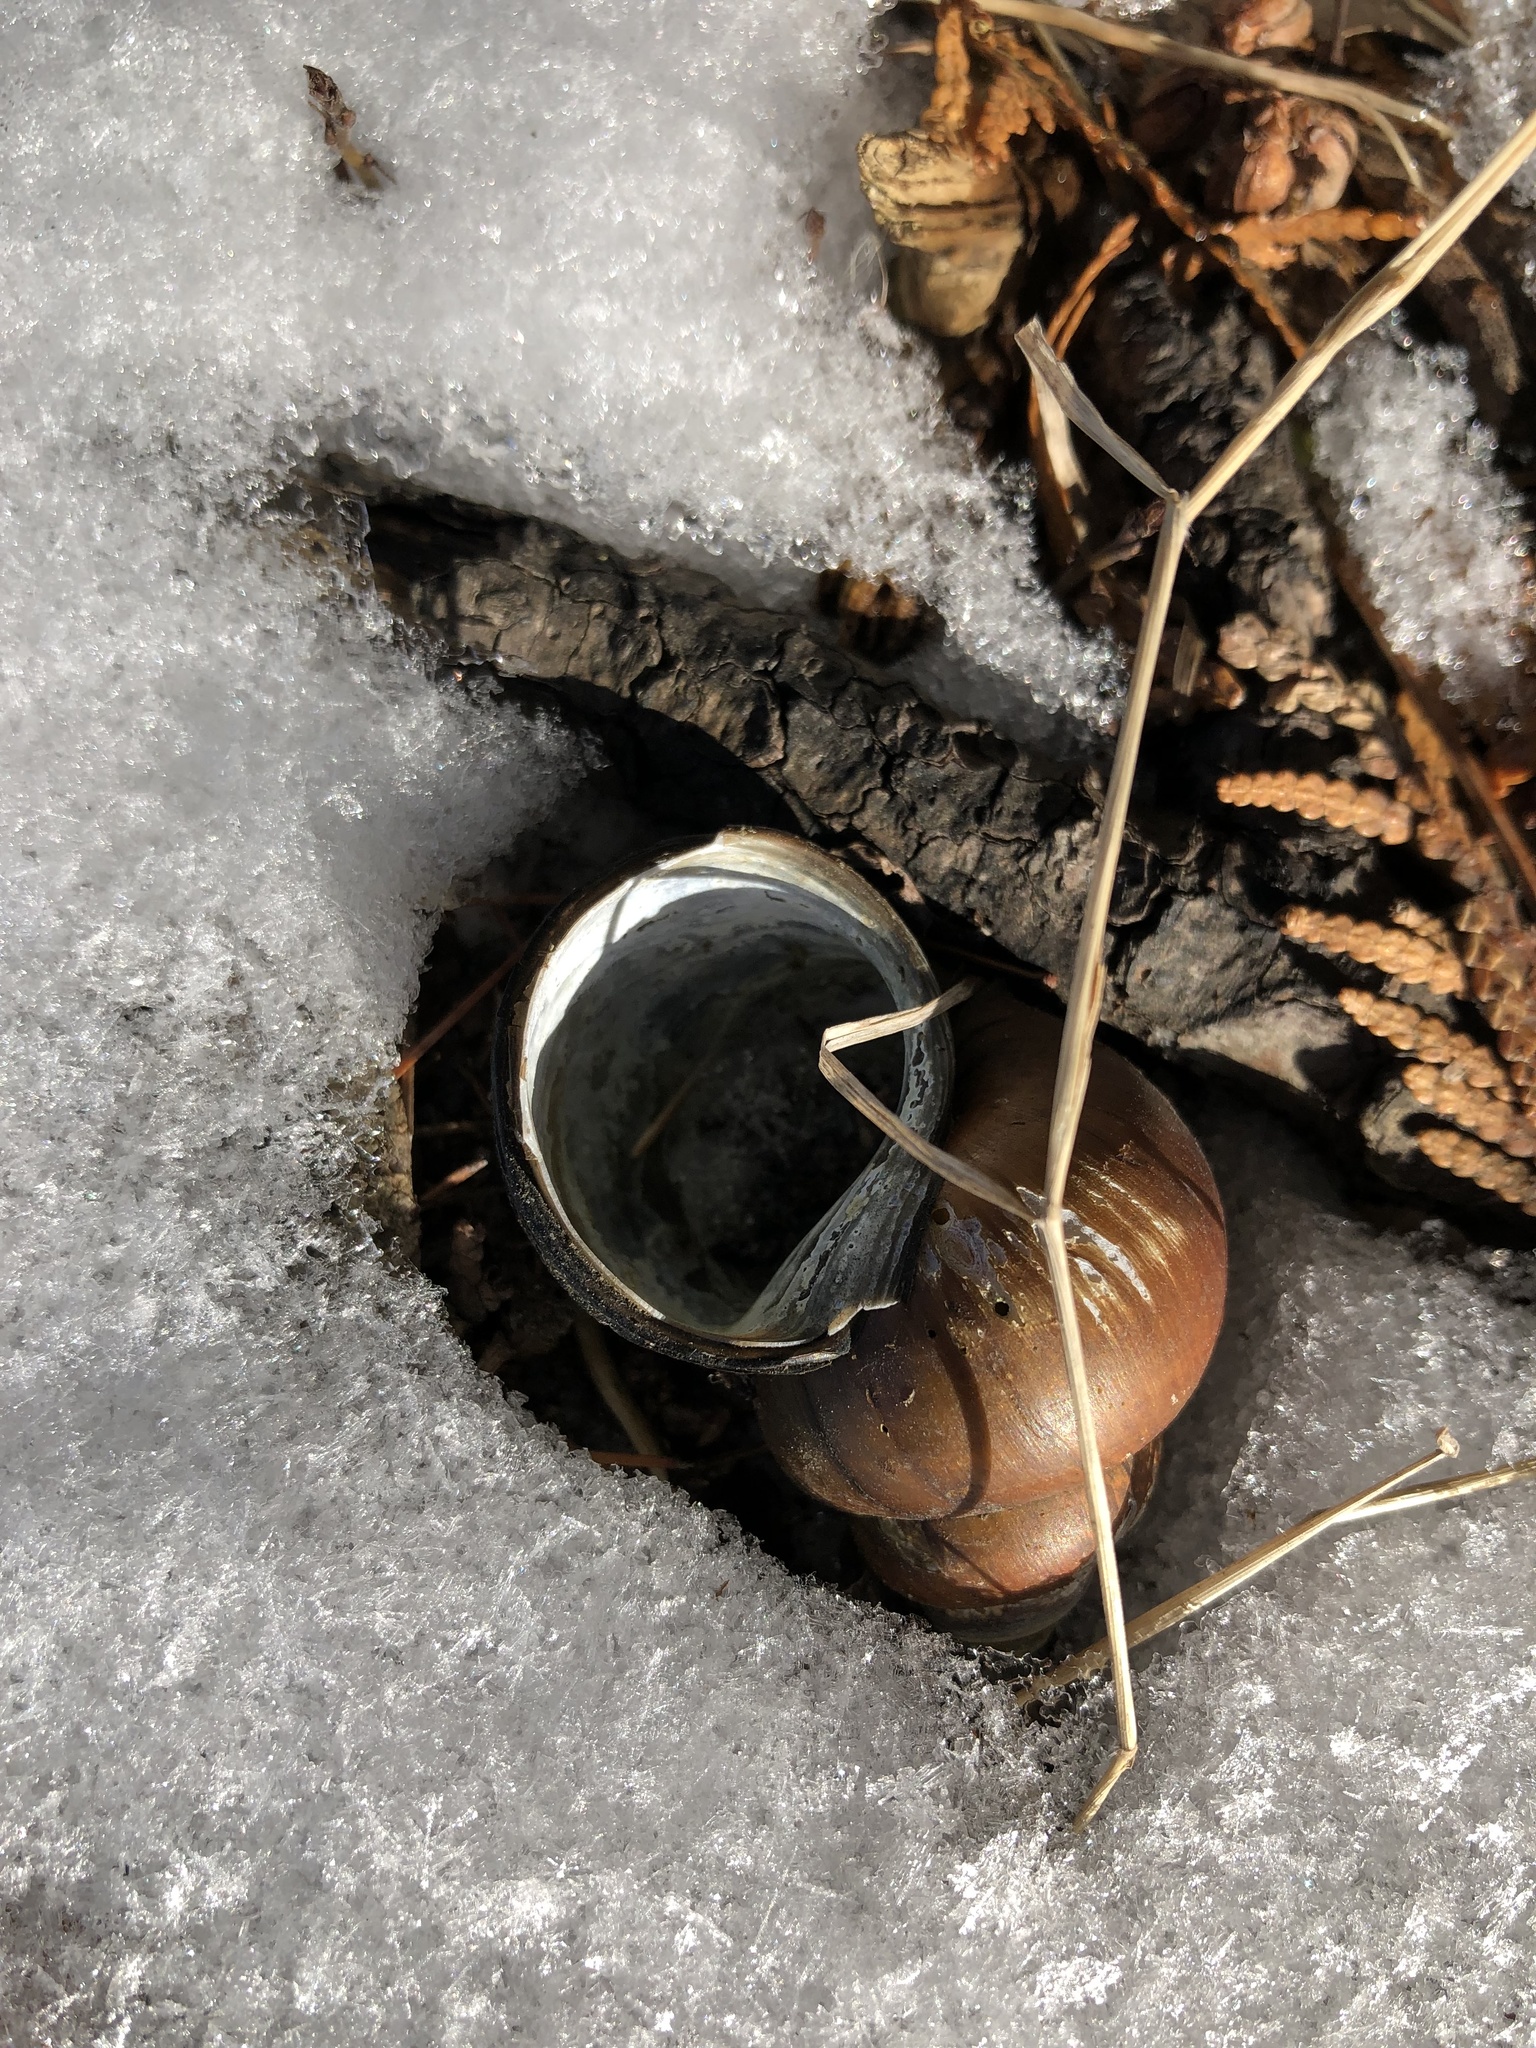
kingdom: Animalia
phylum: Mollusca
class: Gastropoda
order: Architaenioglossa
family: Viviparidae
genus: Cipangopaludina
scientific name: Cipangopaludina chinensis
